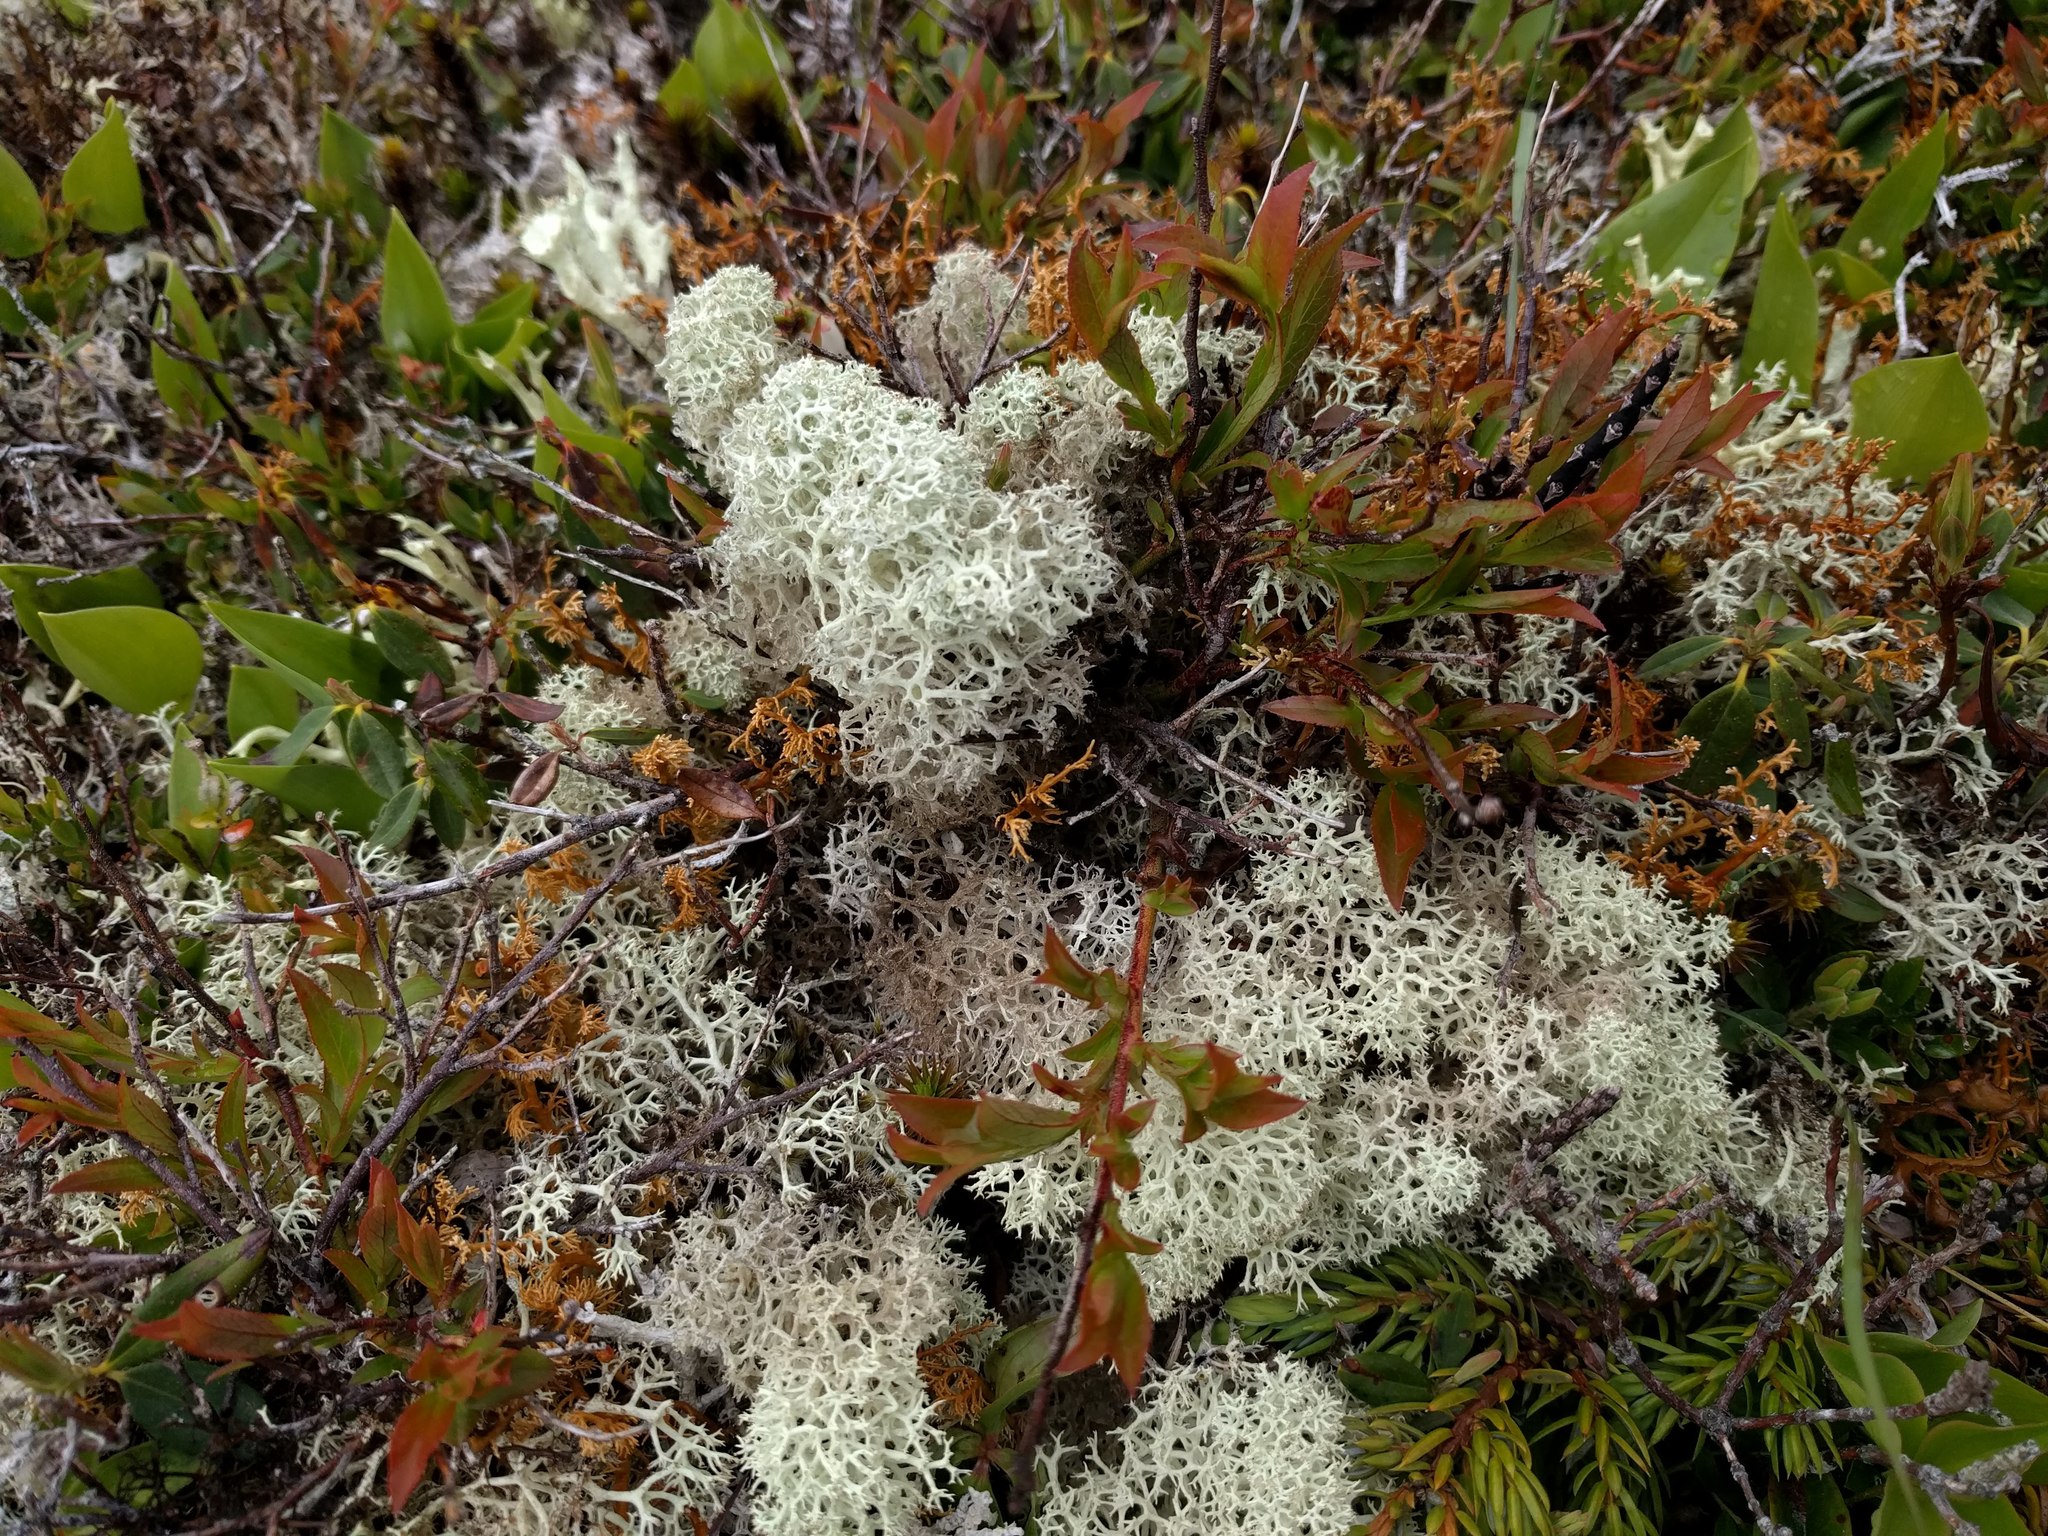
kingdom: Fungi
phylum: Ascomycota
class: Lecanoromycetes
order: Lecanorales
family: Cladoniaceae
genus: Cladonia
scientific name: Cladonia stellaris
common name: Star-tipped reindeer lichen
